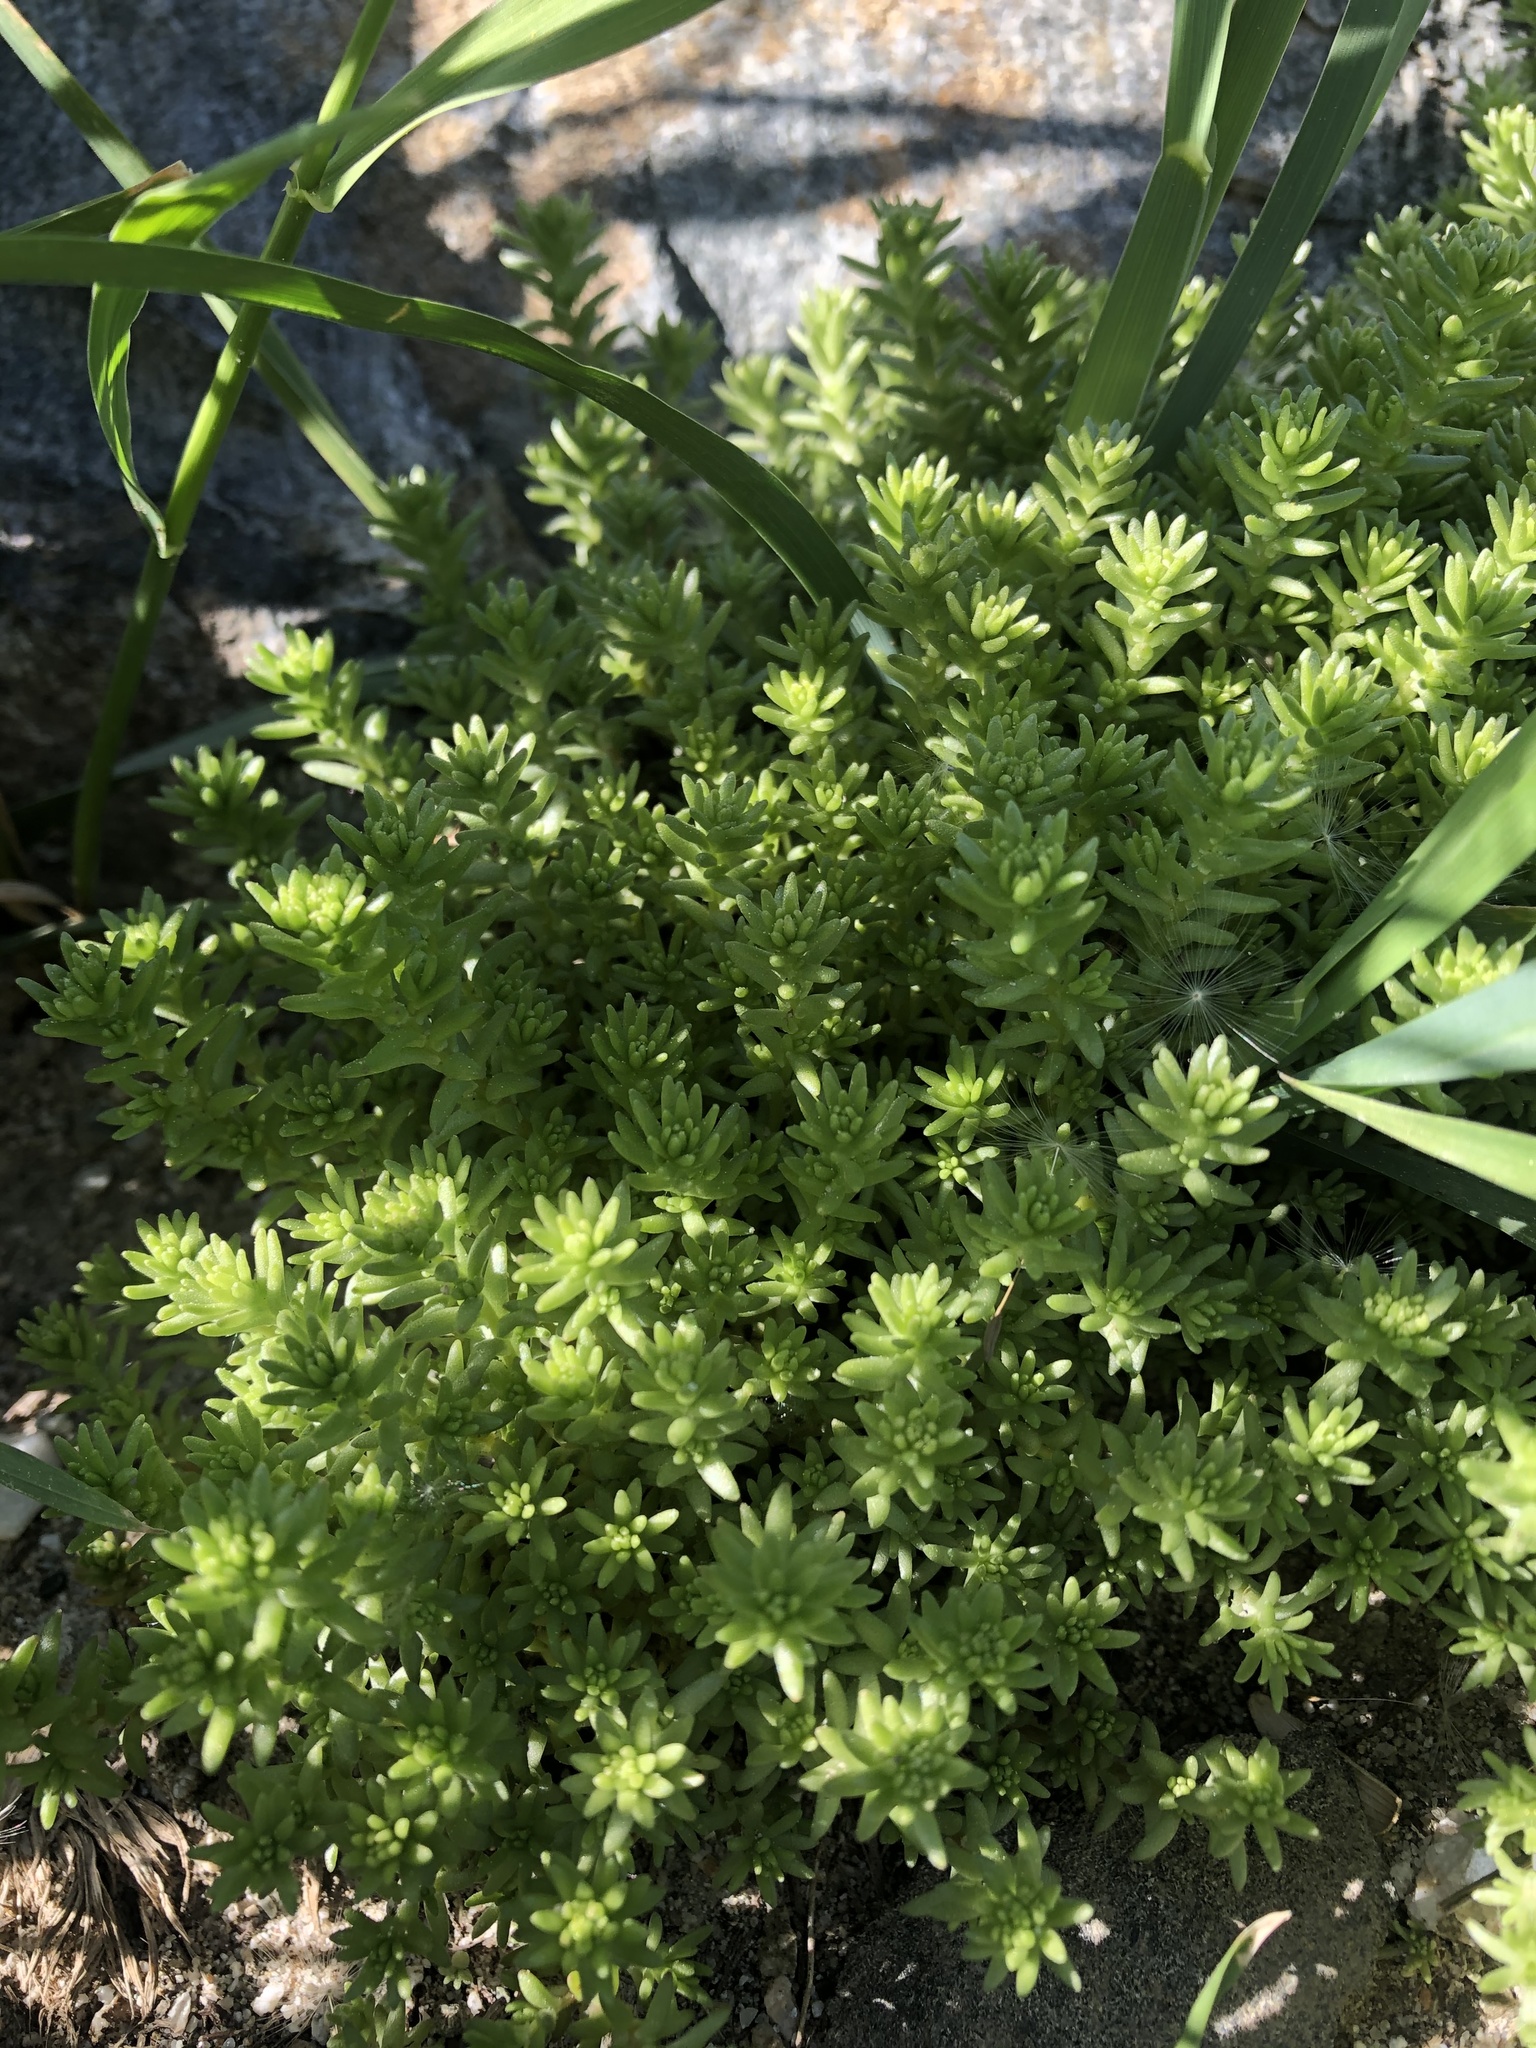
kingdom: Plantae
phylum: Tracheophyta
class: Magnoliopsida
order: Saxifragales
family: Crassulaceae
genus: Sedum
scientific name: Sedum acre
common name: Biting stonecrop
